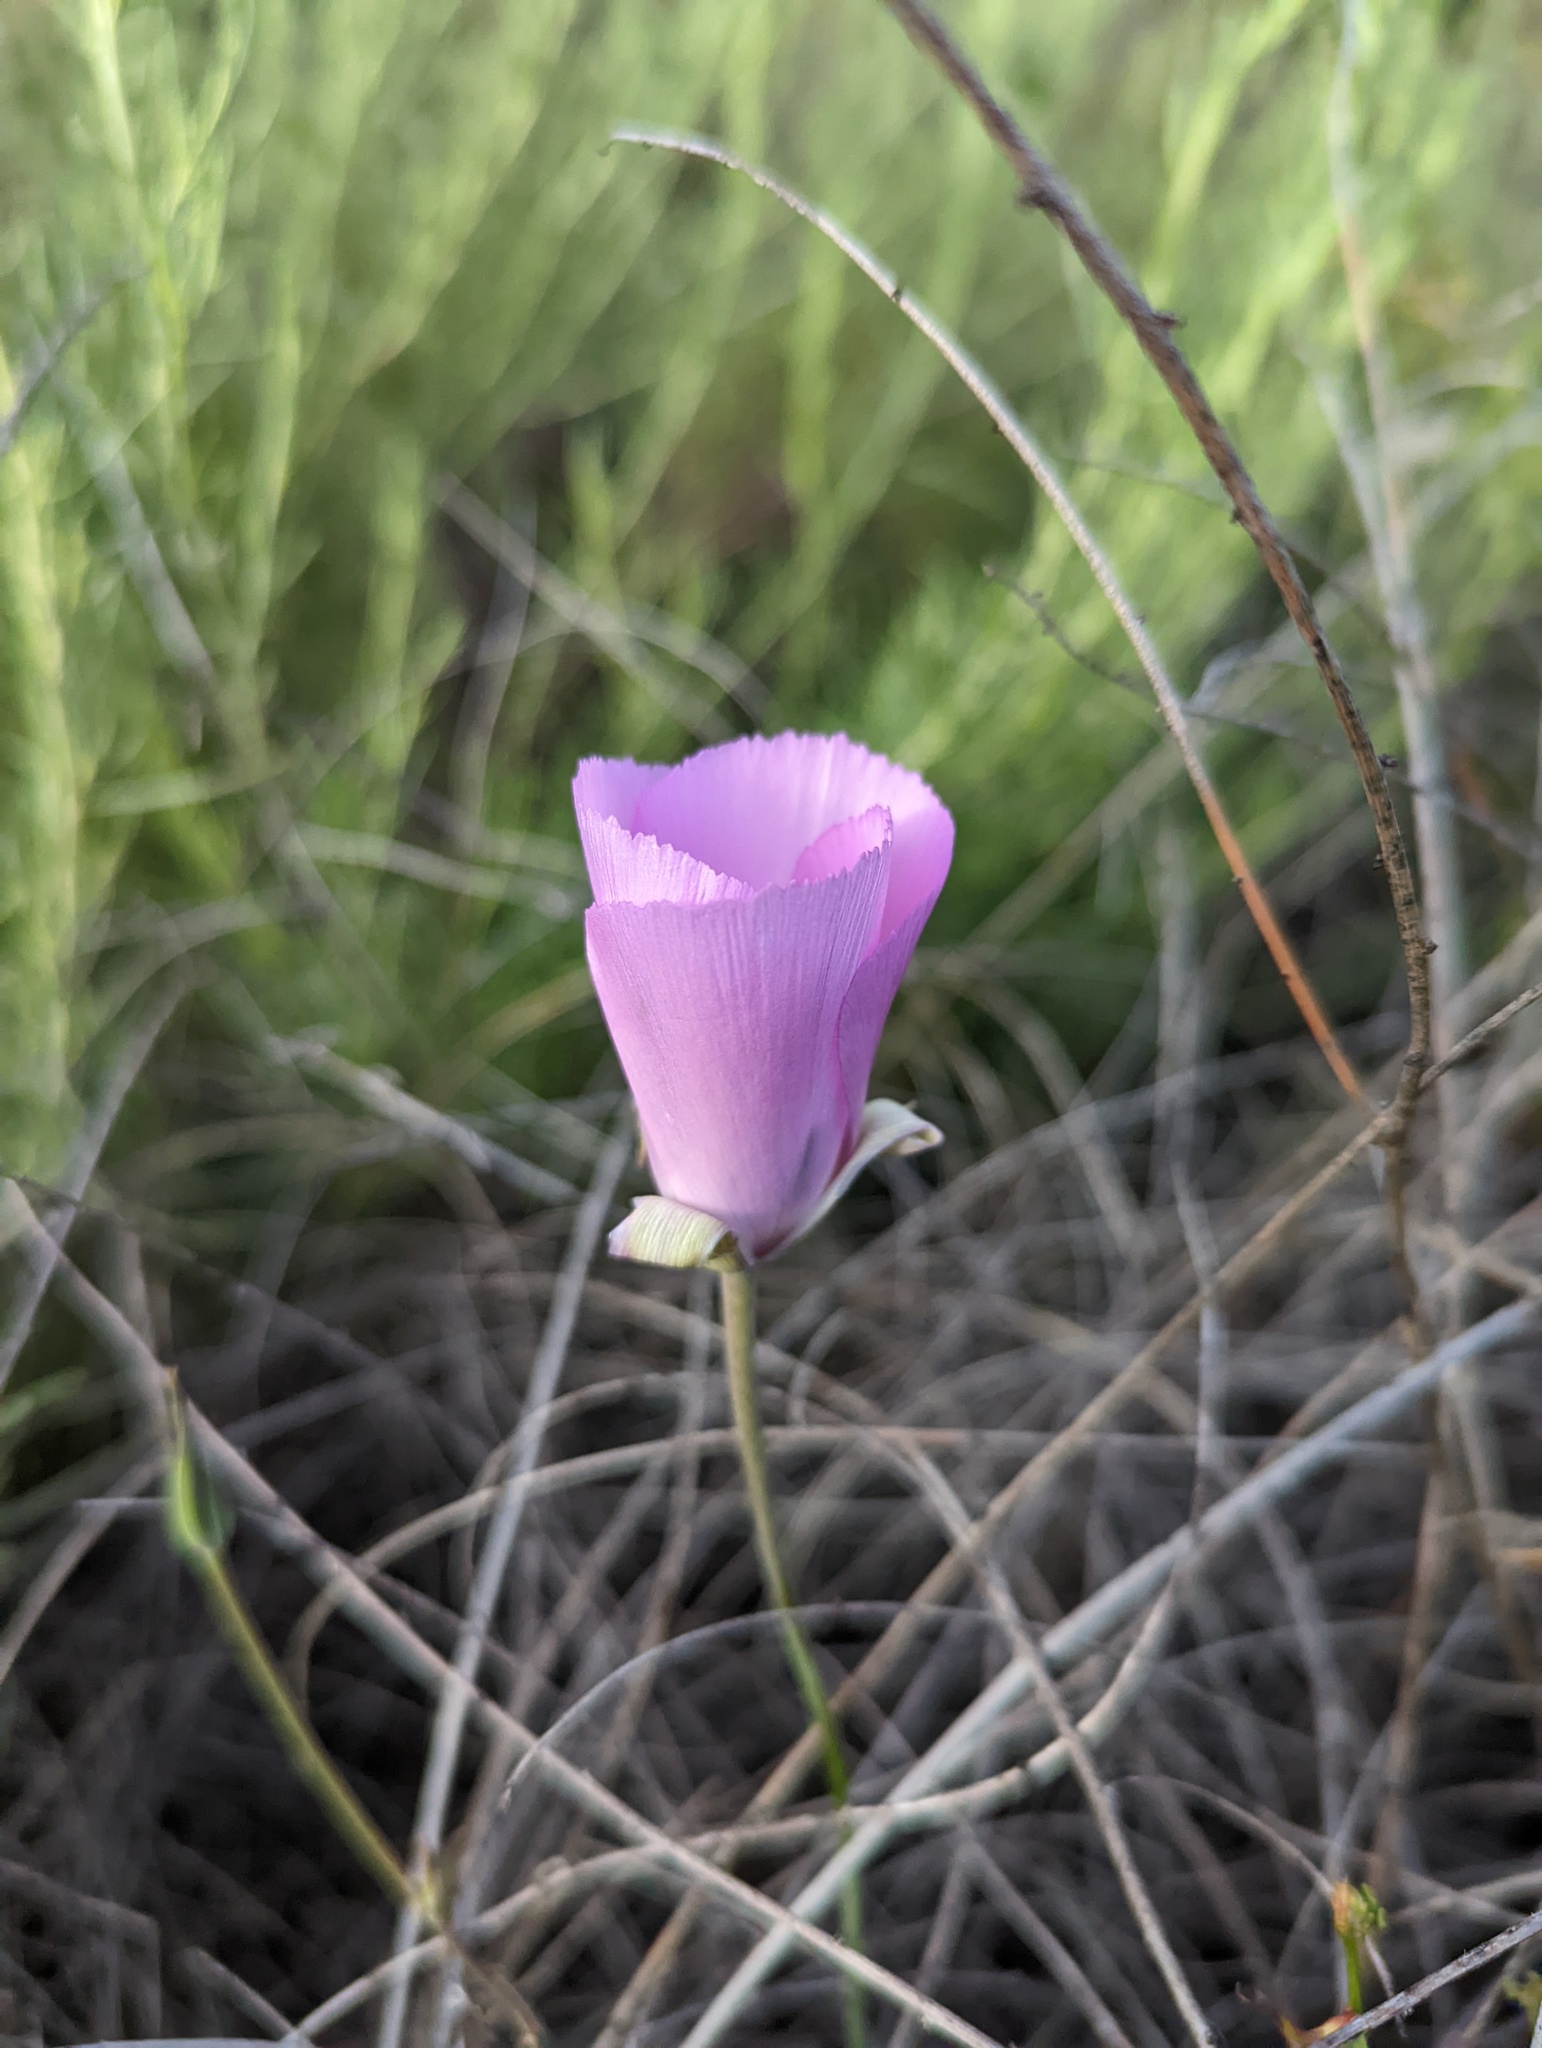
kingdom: Plantae
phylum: Tracheophyta
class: Liliopsida
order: Liliales
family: Liliaceae
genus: Calochortus
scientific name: Calochortus splendens
